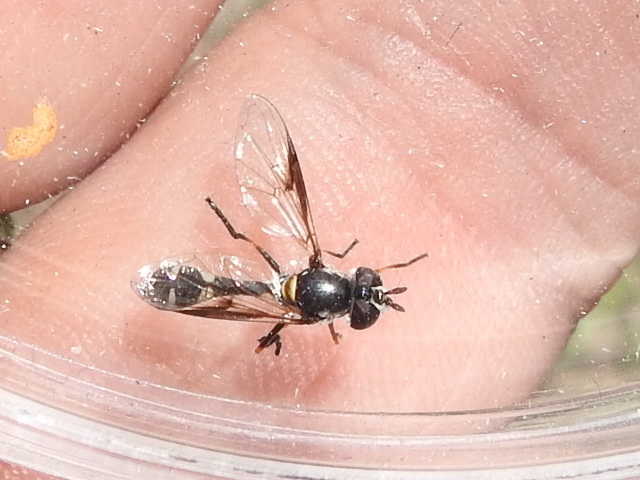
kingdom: Animalia
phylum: Arthropoda
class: Insecta
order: Diptera
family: Syrphidae
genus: Dioprosopa
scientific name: Dioprosopa clavatus
